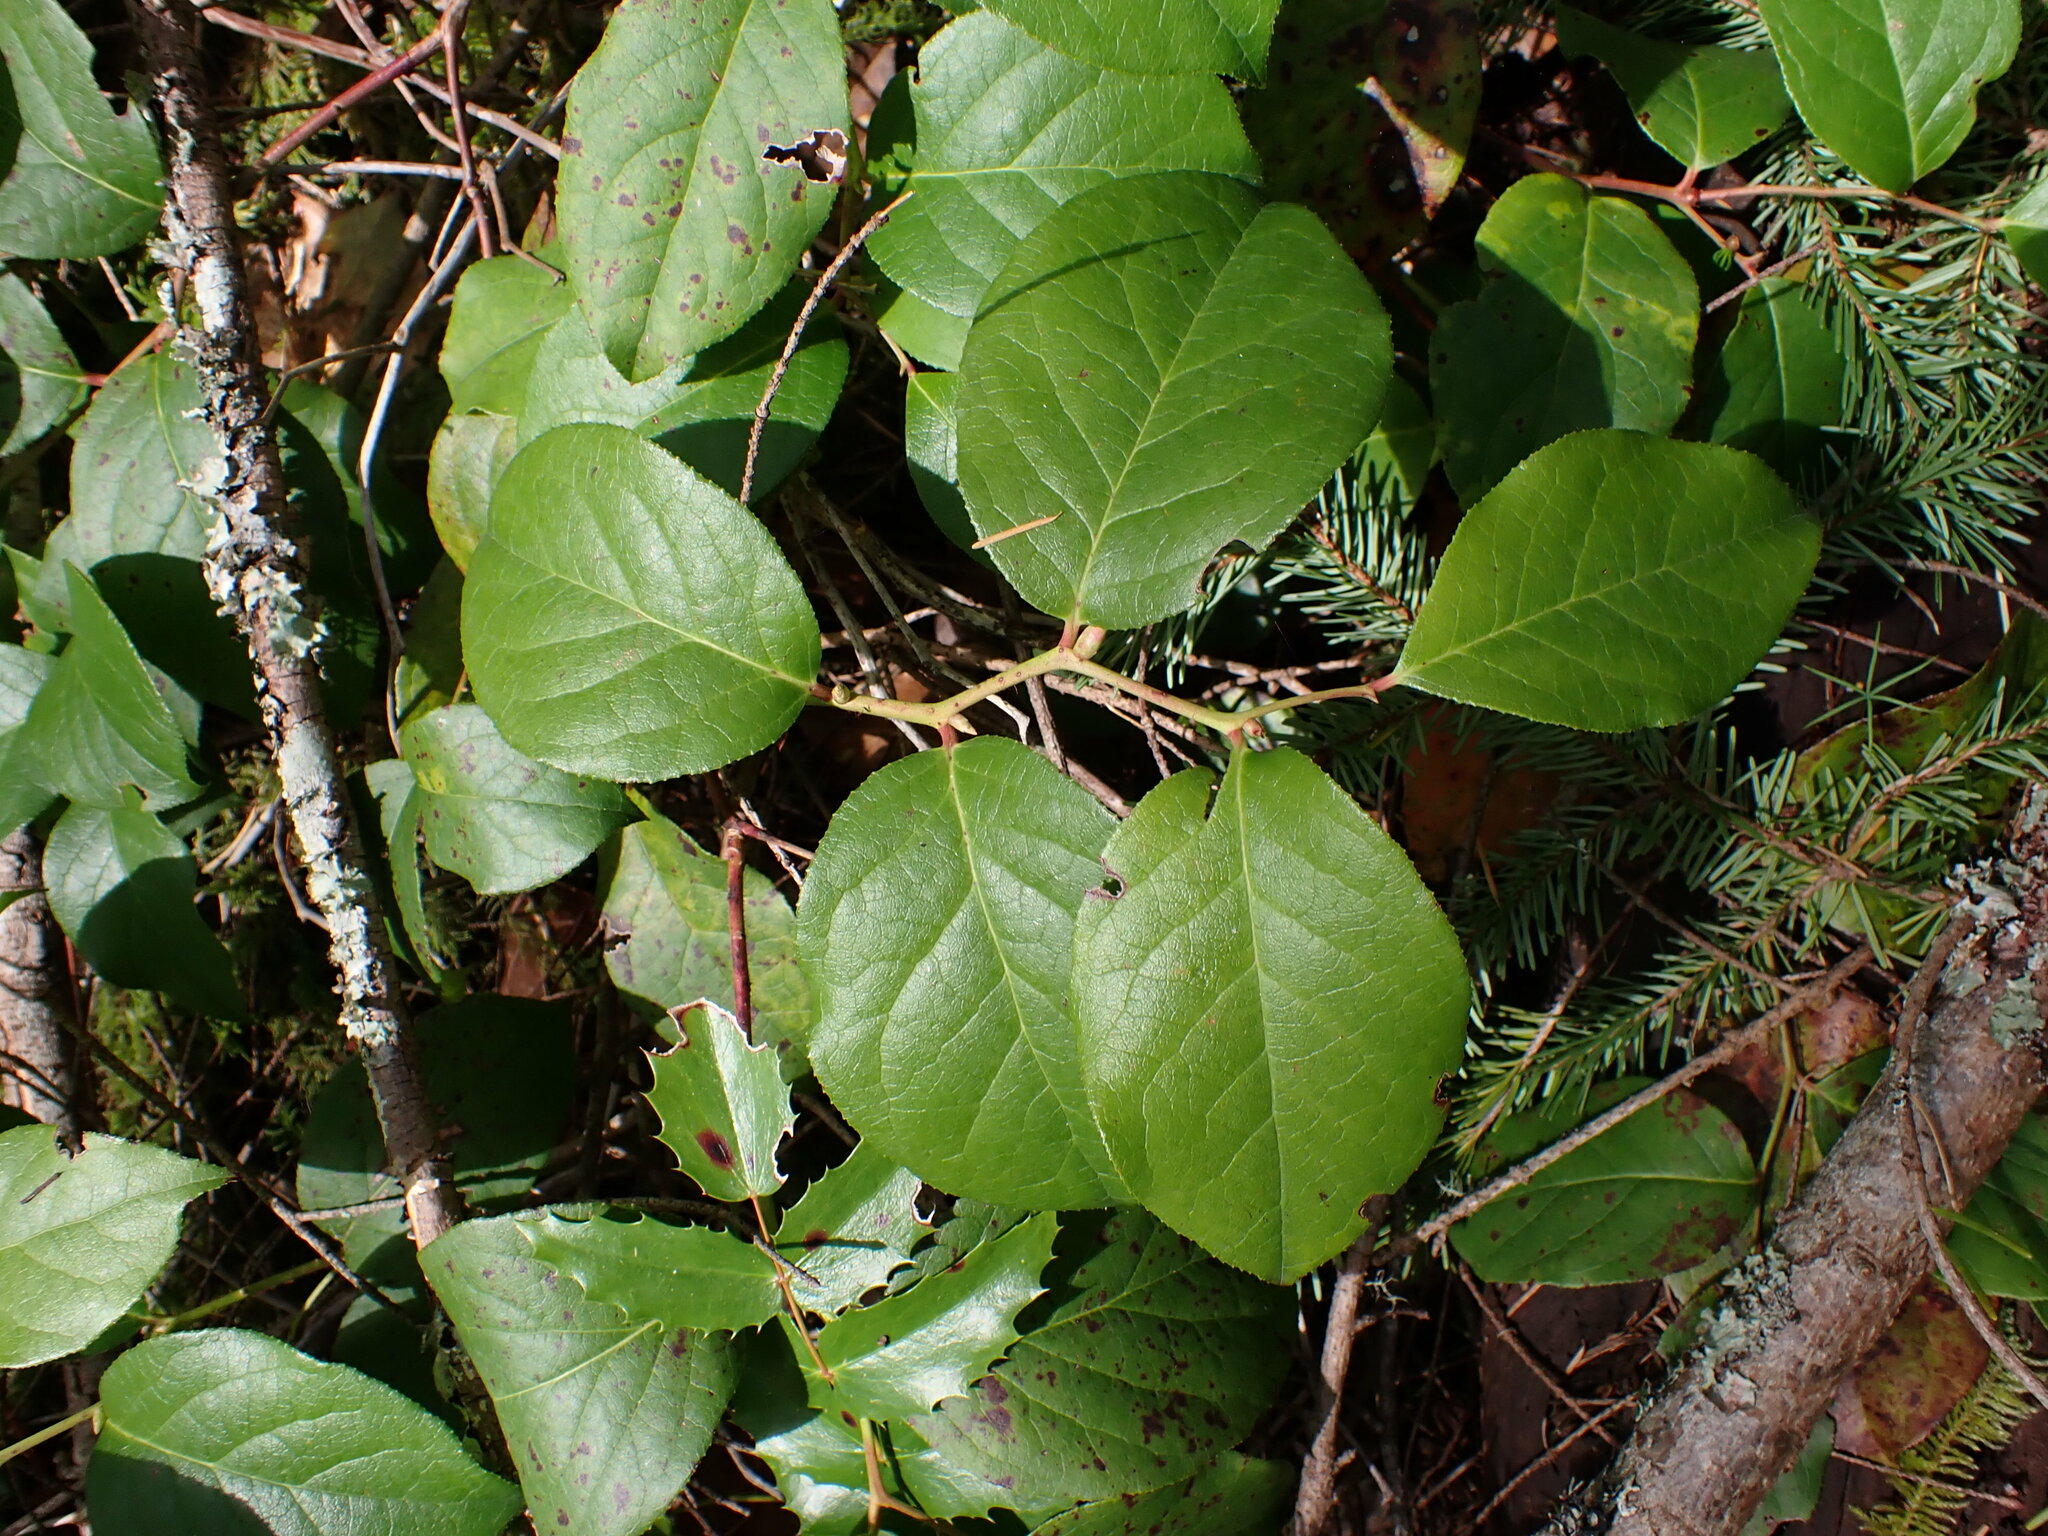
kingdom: Plantae
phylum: Tracheophyta
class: Magnoliopsida
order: Ericales
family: Ericaceae
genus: Gaultheria
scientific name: Gaultheria shallon
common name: Shallon
